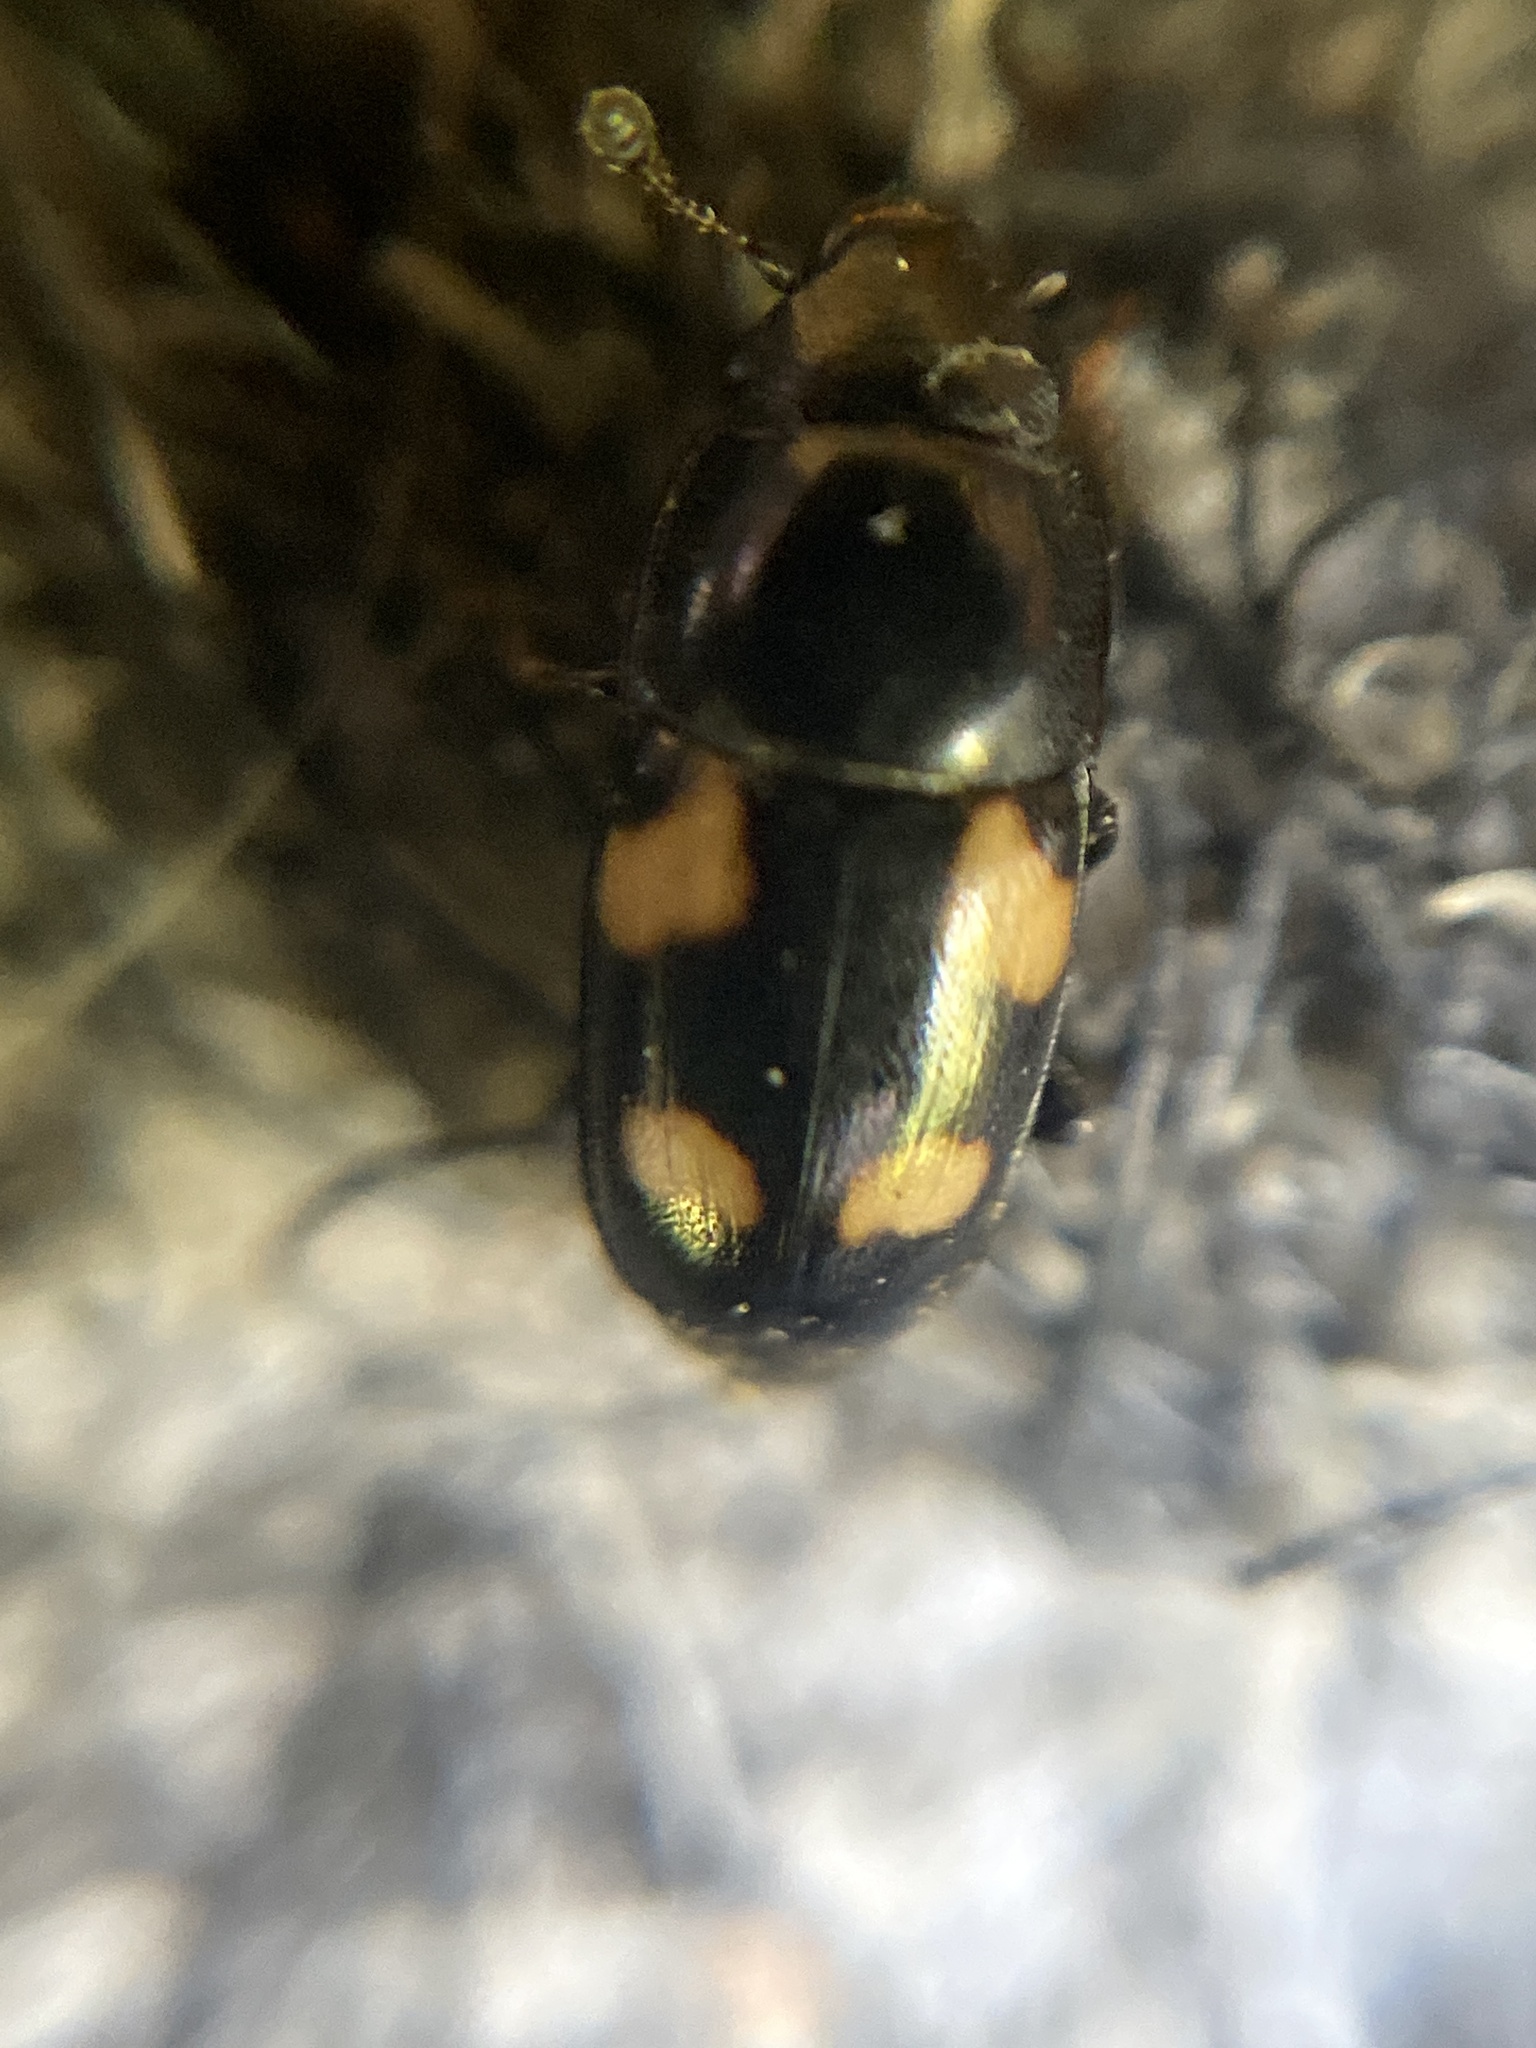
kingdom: Animalia
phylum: Arthropoda
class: Insecta
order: Coleoptera
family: Nitidulidae
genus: Glischrochilus
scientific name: Glischrochilus quadrisignatus
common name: Picnic beetle
